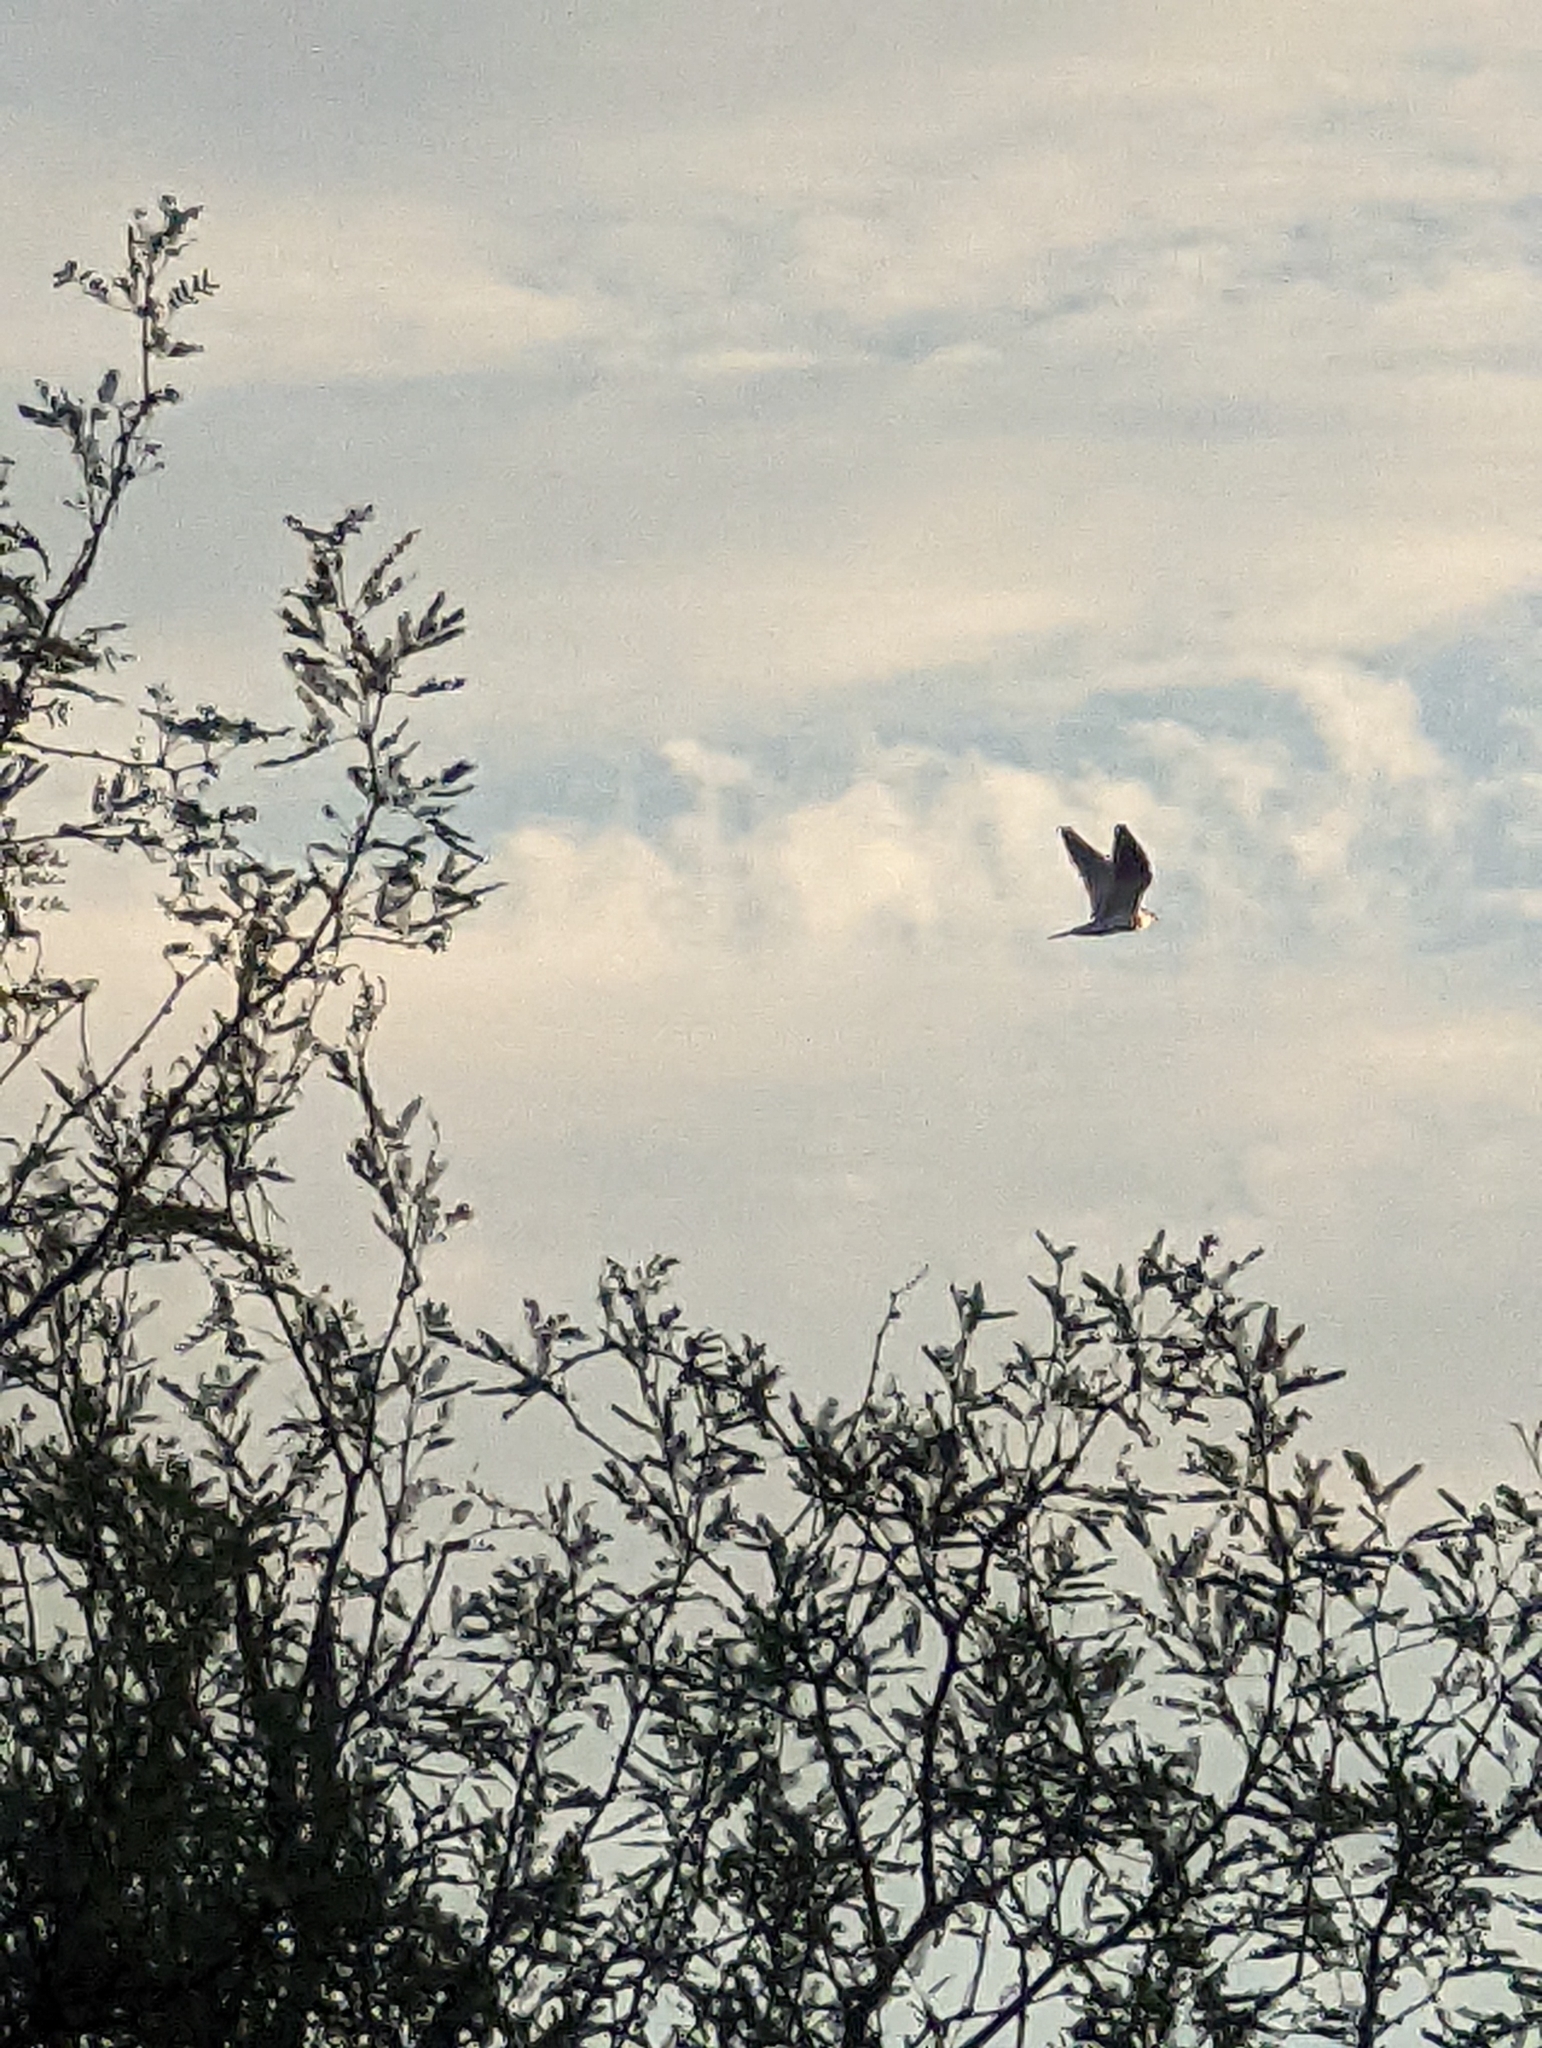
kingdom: Animalia
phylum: Chordata
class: Aves
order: Accipitriformes
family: Accipitridae
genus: Elanus
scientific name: Elanus leucurus
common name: White-tailed kite
